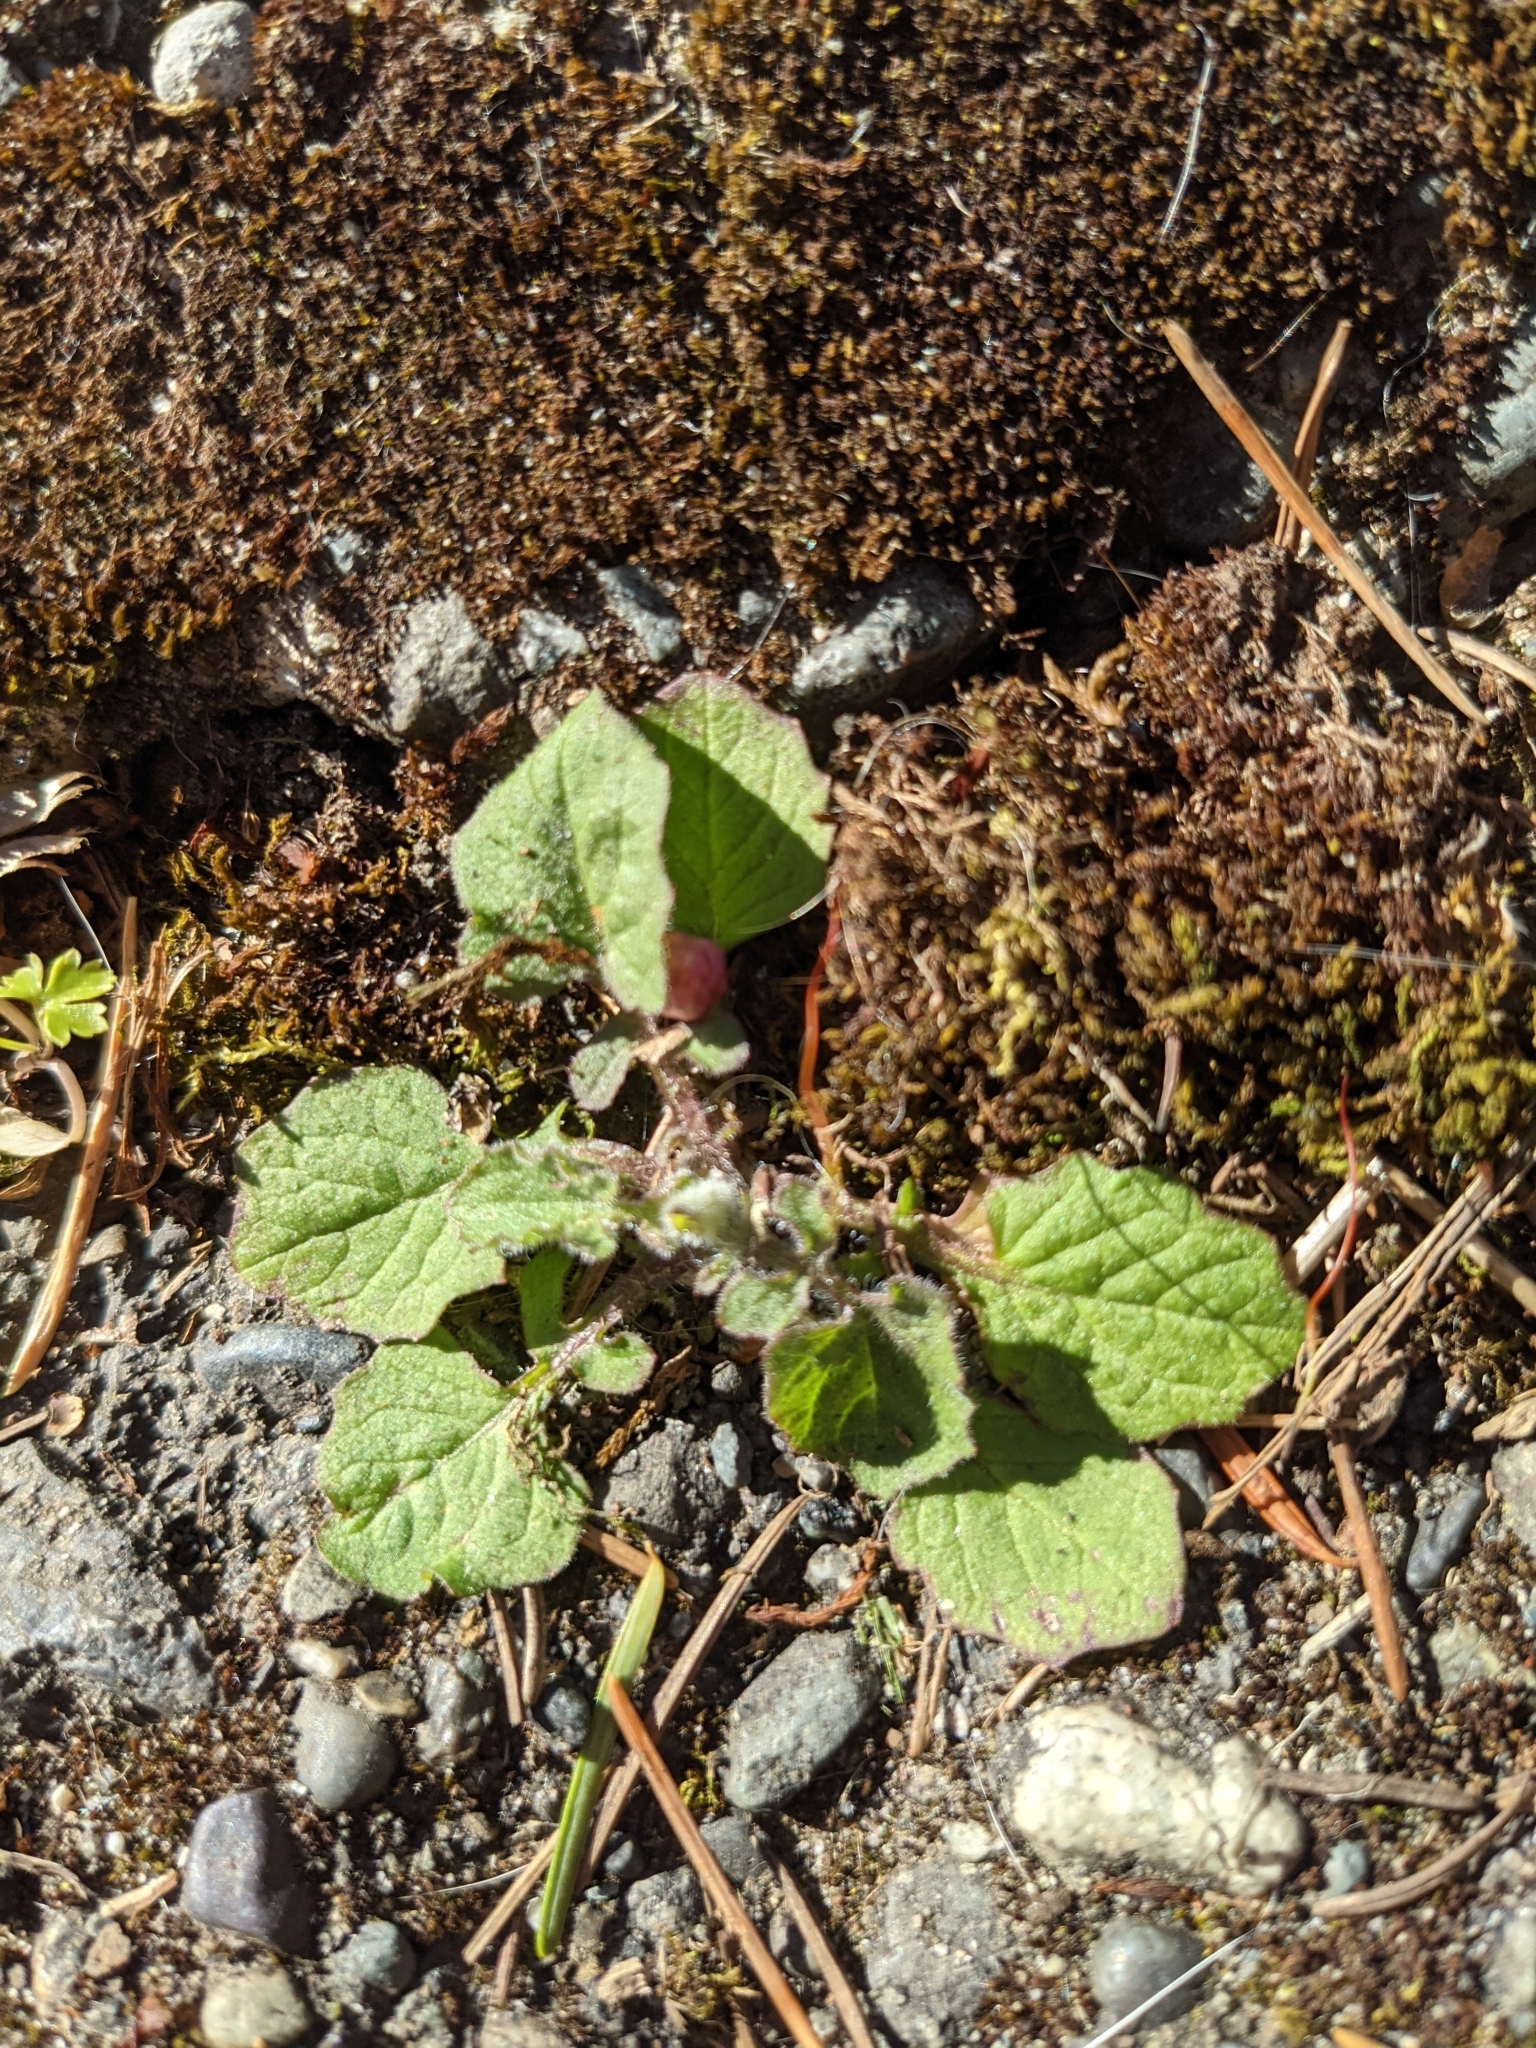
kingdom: Plantae
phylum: Tracheophyta
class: Magnoliopsida
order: Asterales
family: Asteraceae
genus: Lapsana
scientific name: Lapsana communis
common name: Nipplewort
